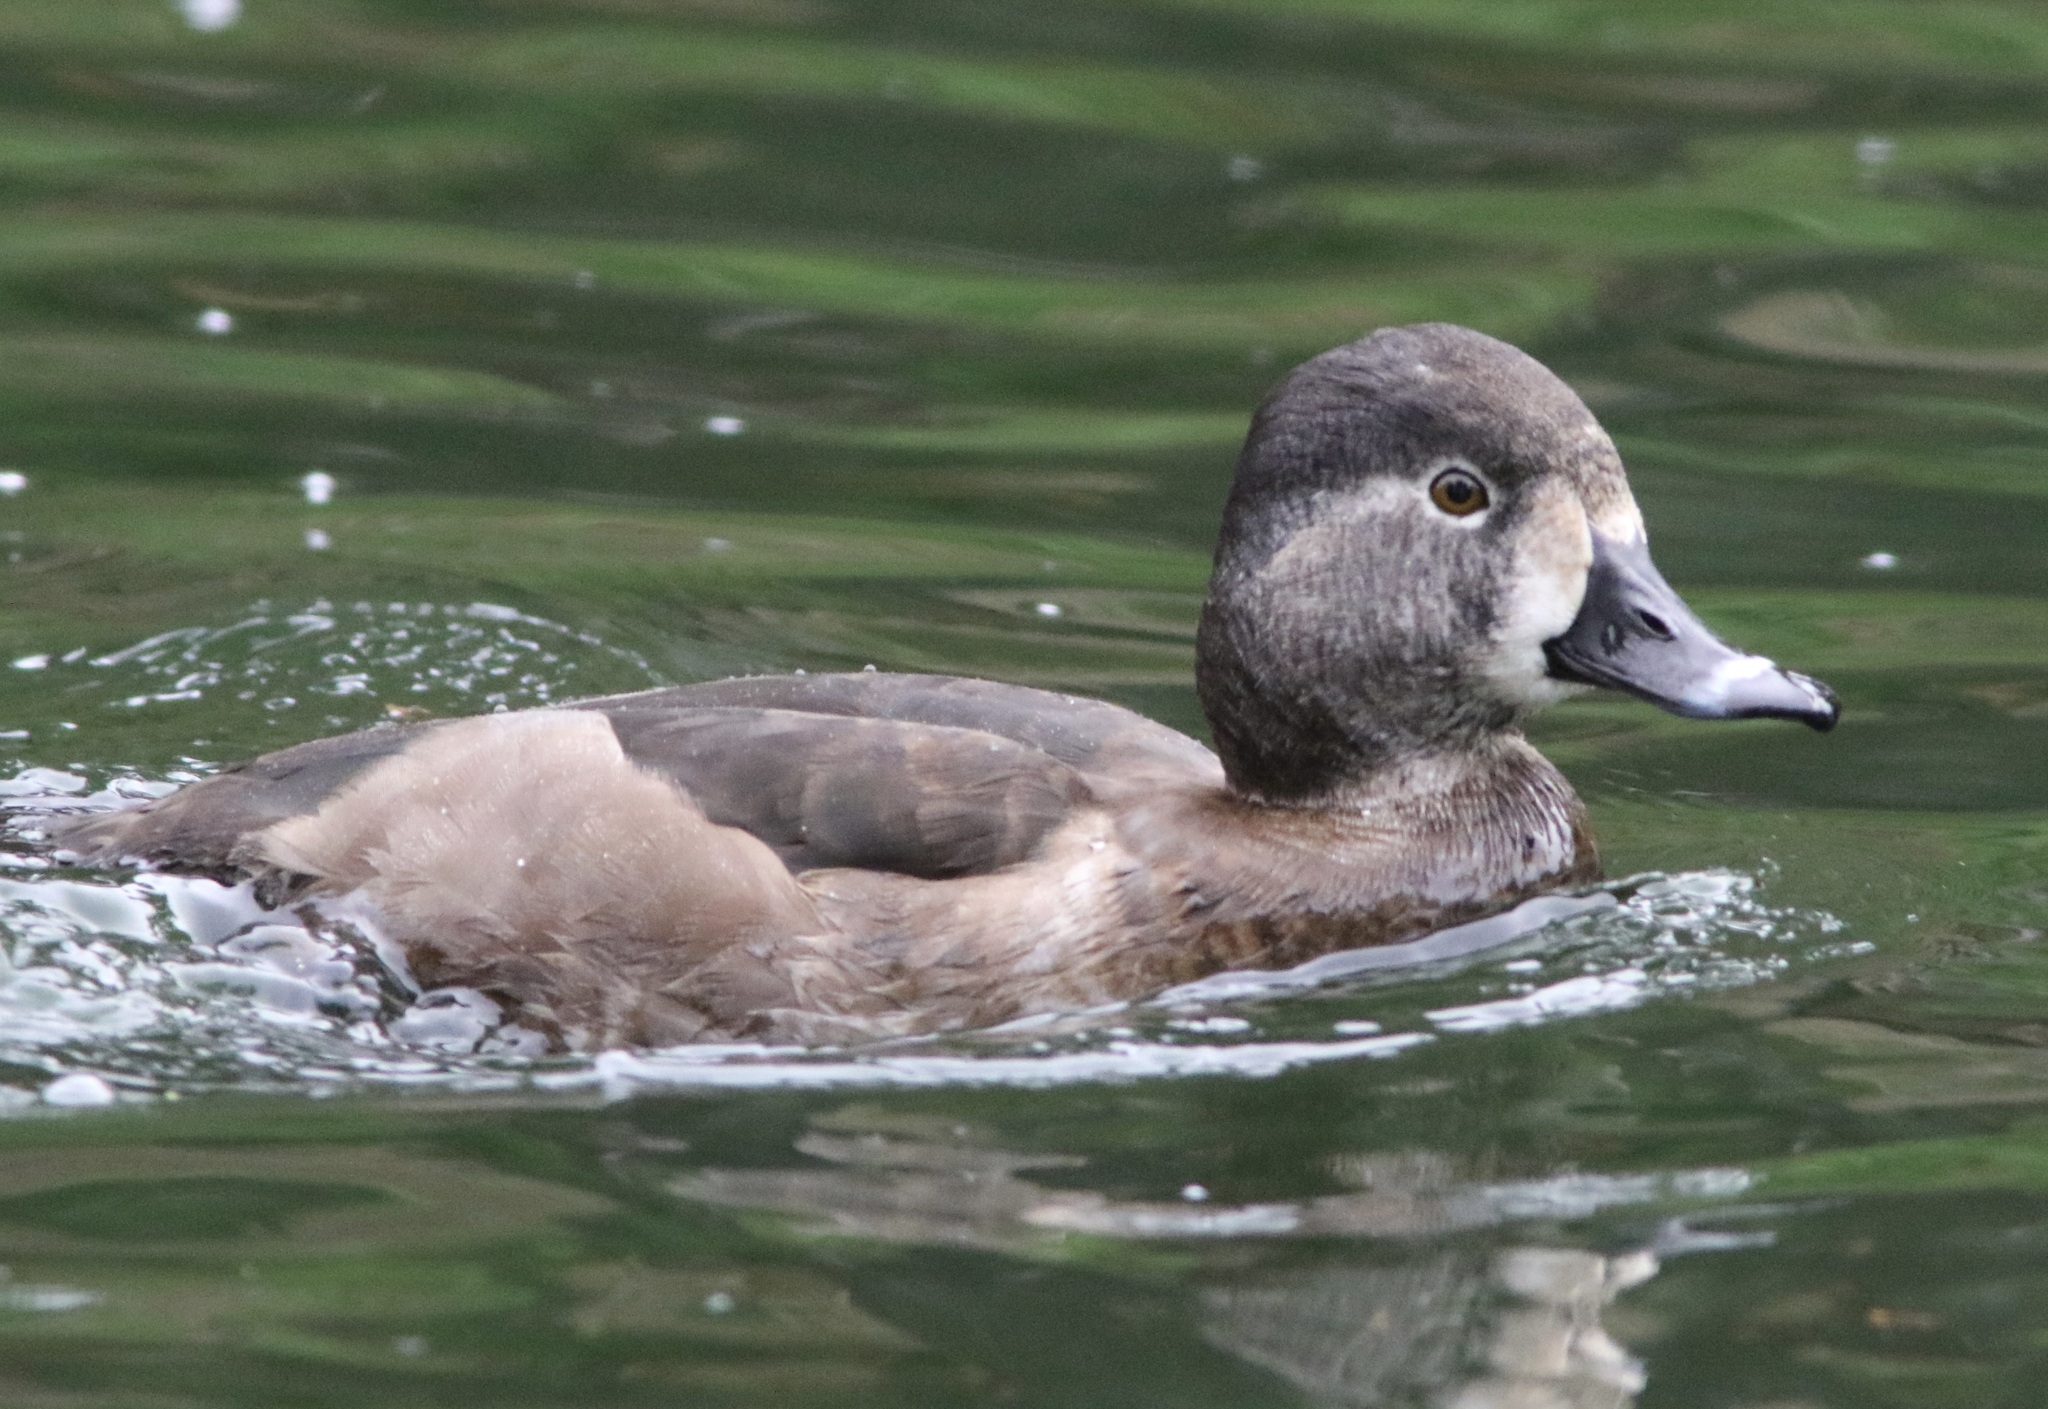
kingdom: Animalia
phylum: Chordata
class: Aves
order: Anseriformes
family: Anatidae
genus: Aythya
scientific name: Aythya collaris
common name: Ring-necked duck
